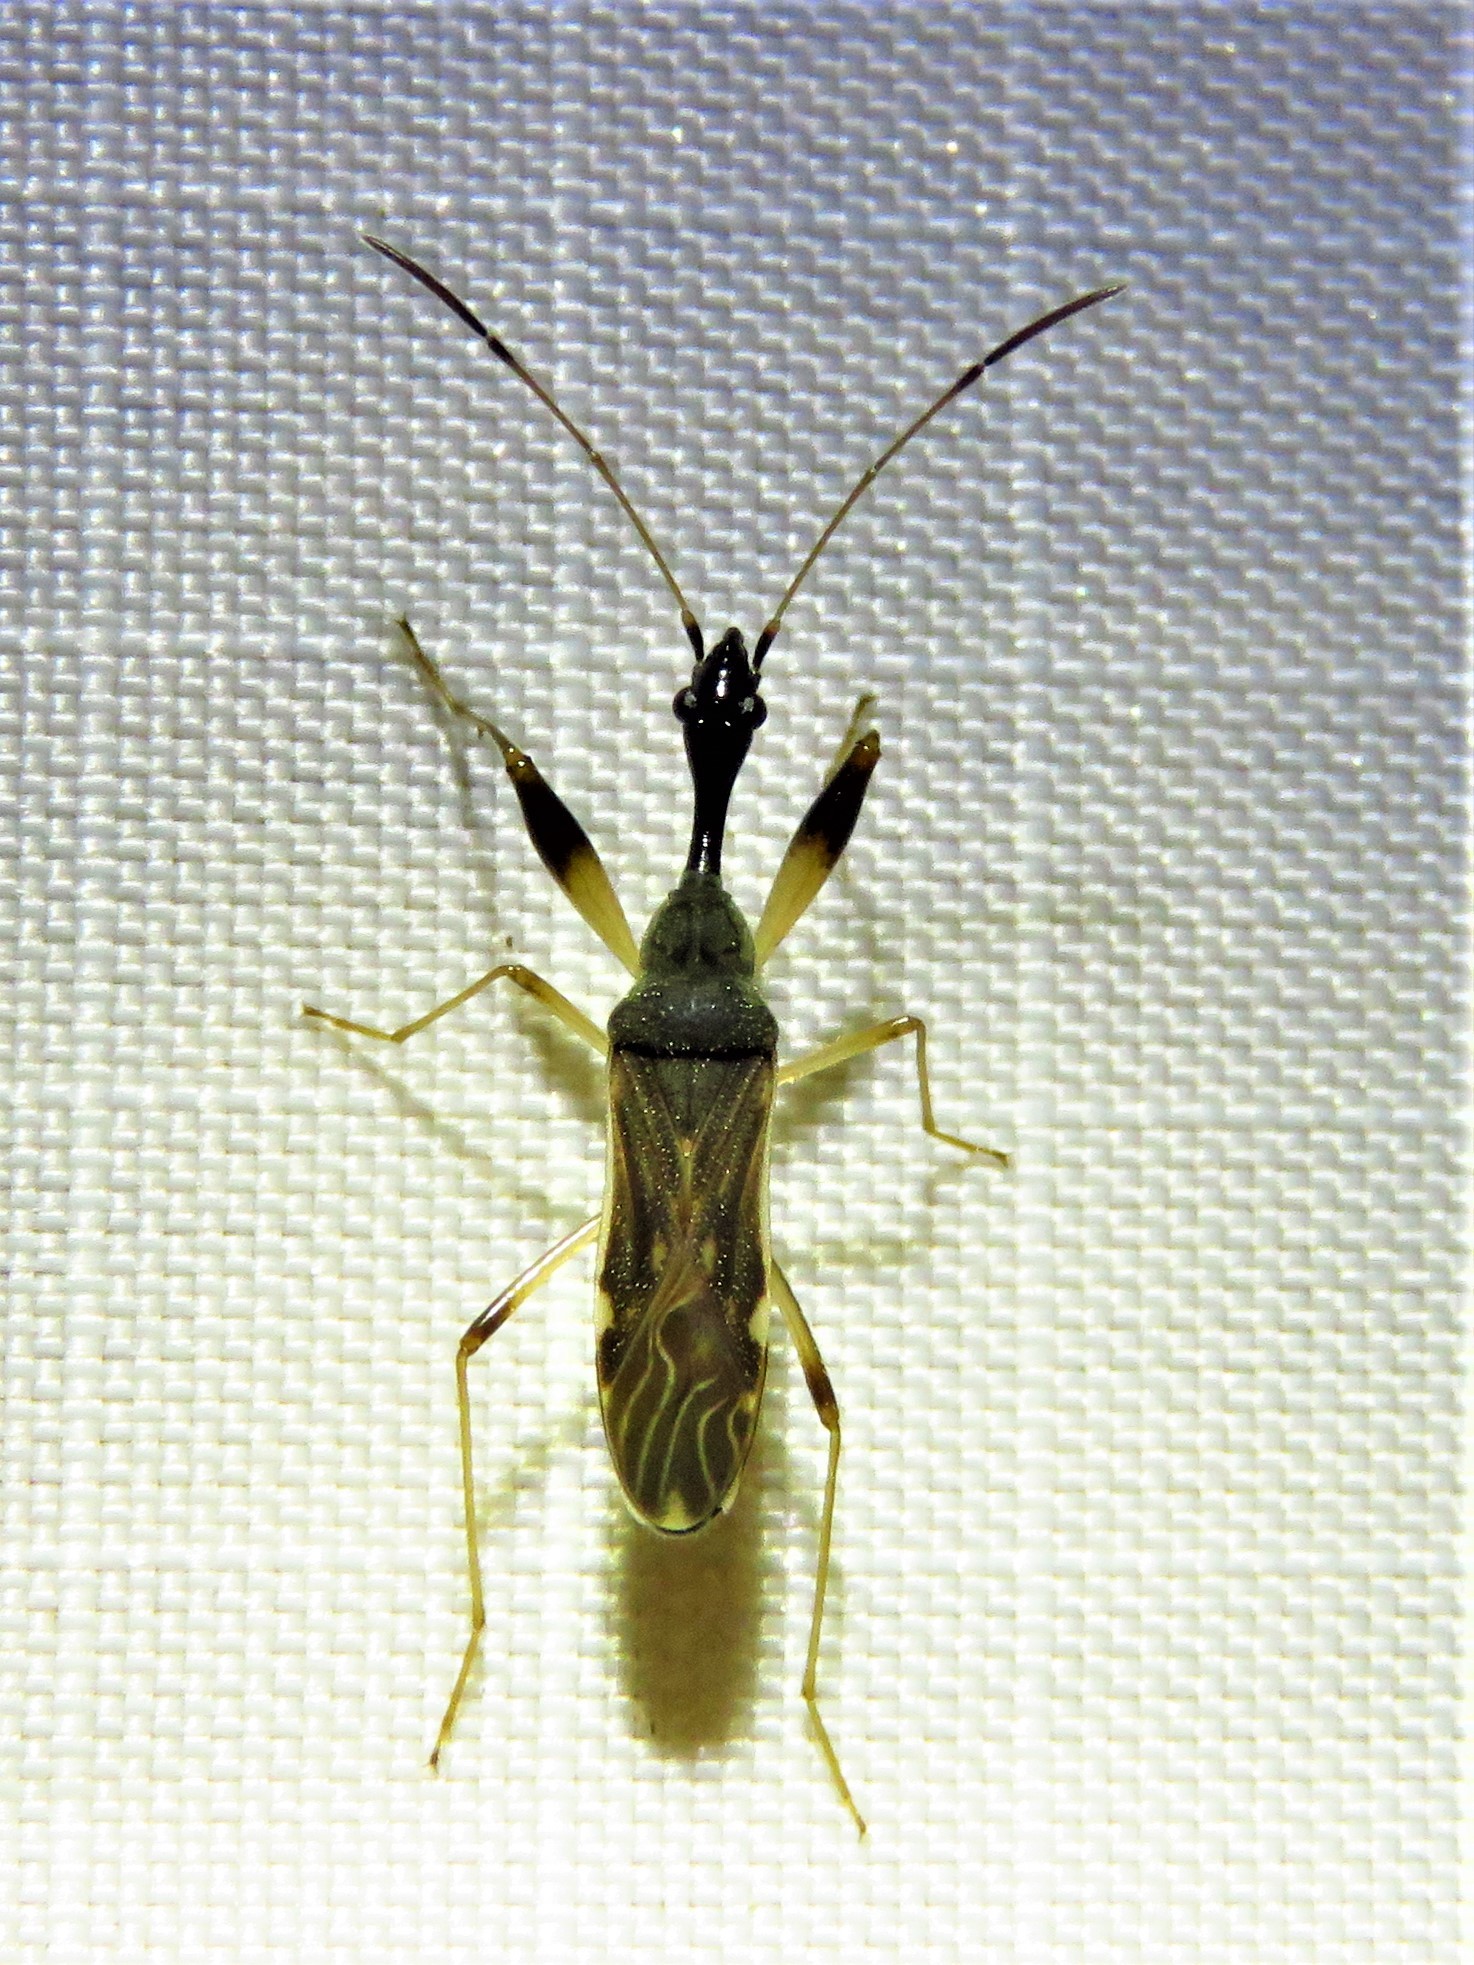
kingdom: Animalia
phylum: Arthropoda
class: Insecta
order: Hemiptera
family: Rhyparochromidae
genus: Myodocha
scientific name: Myodocha serripes
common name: Long-necked seed bug
